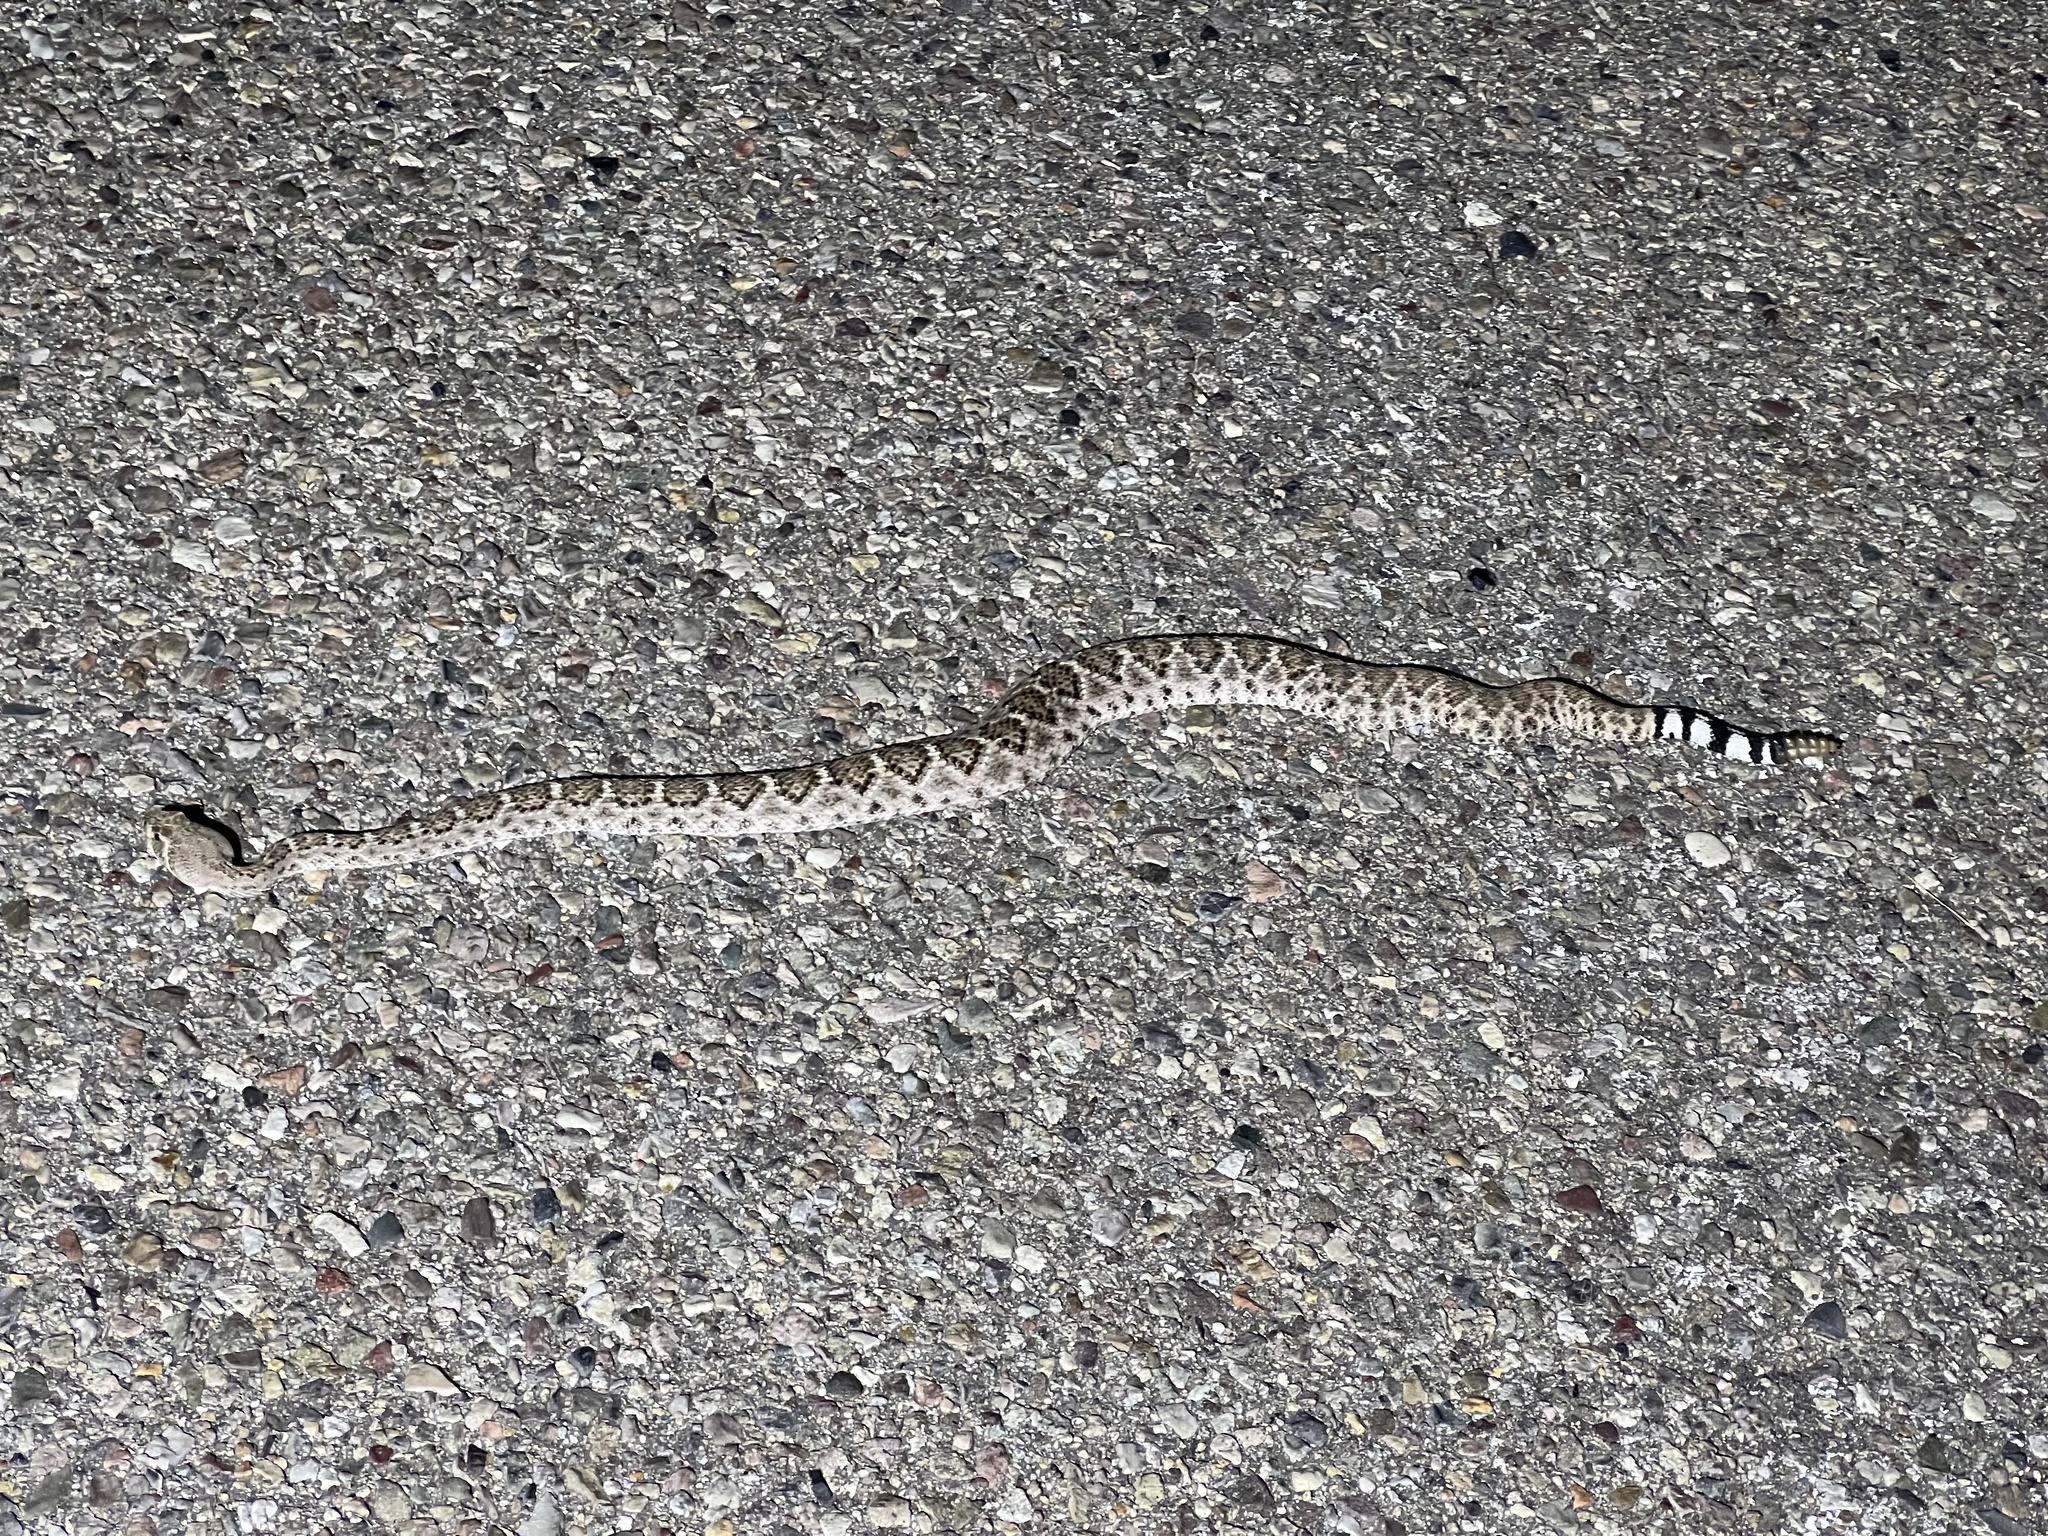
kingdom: Animalia
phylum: Chordata
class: Squamata
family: Viperidae
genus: Crotalus
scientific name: Crotalus atrox
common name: Western diamond-backed rattlesnake
